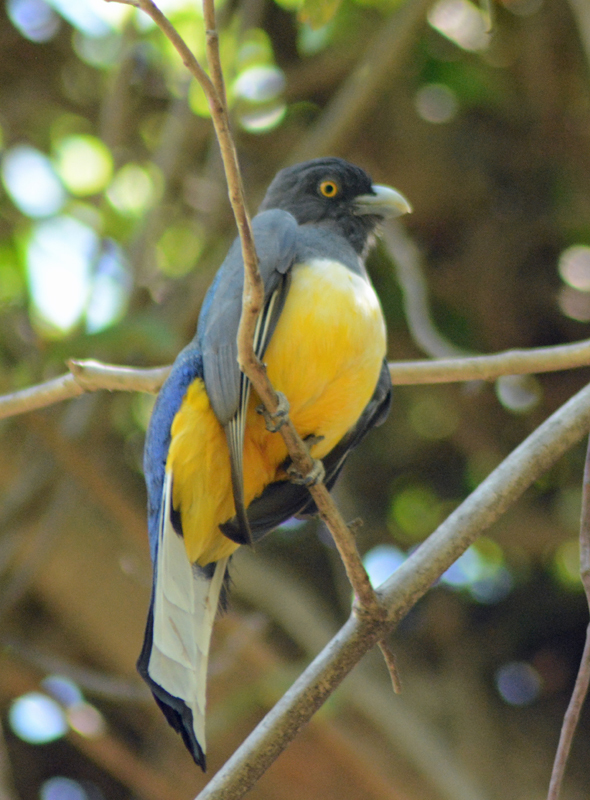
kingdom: Animalia
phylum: Chordata
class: Aves
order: Trogoniformes
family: Trogonidae
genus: Trogon
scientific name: Trogon citreolus
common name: Citreoline trogon
